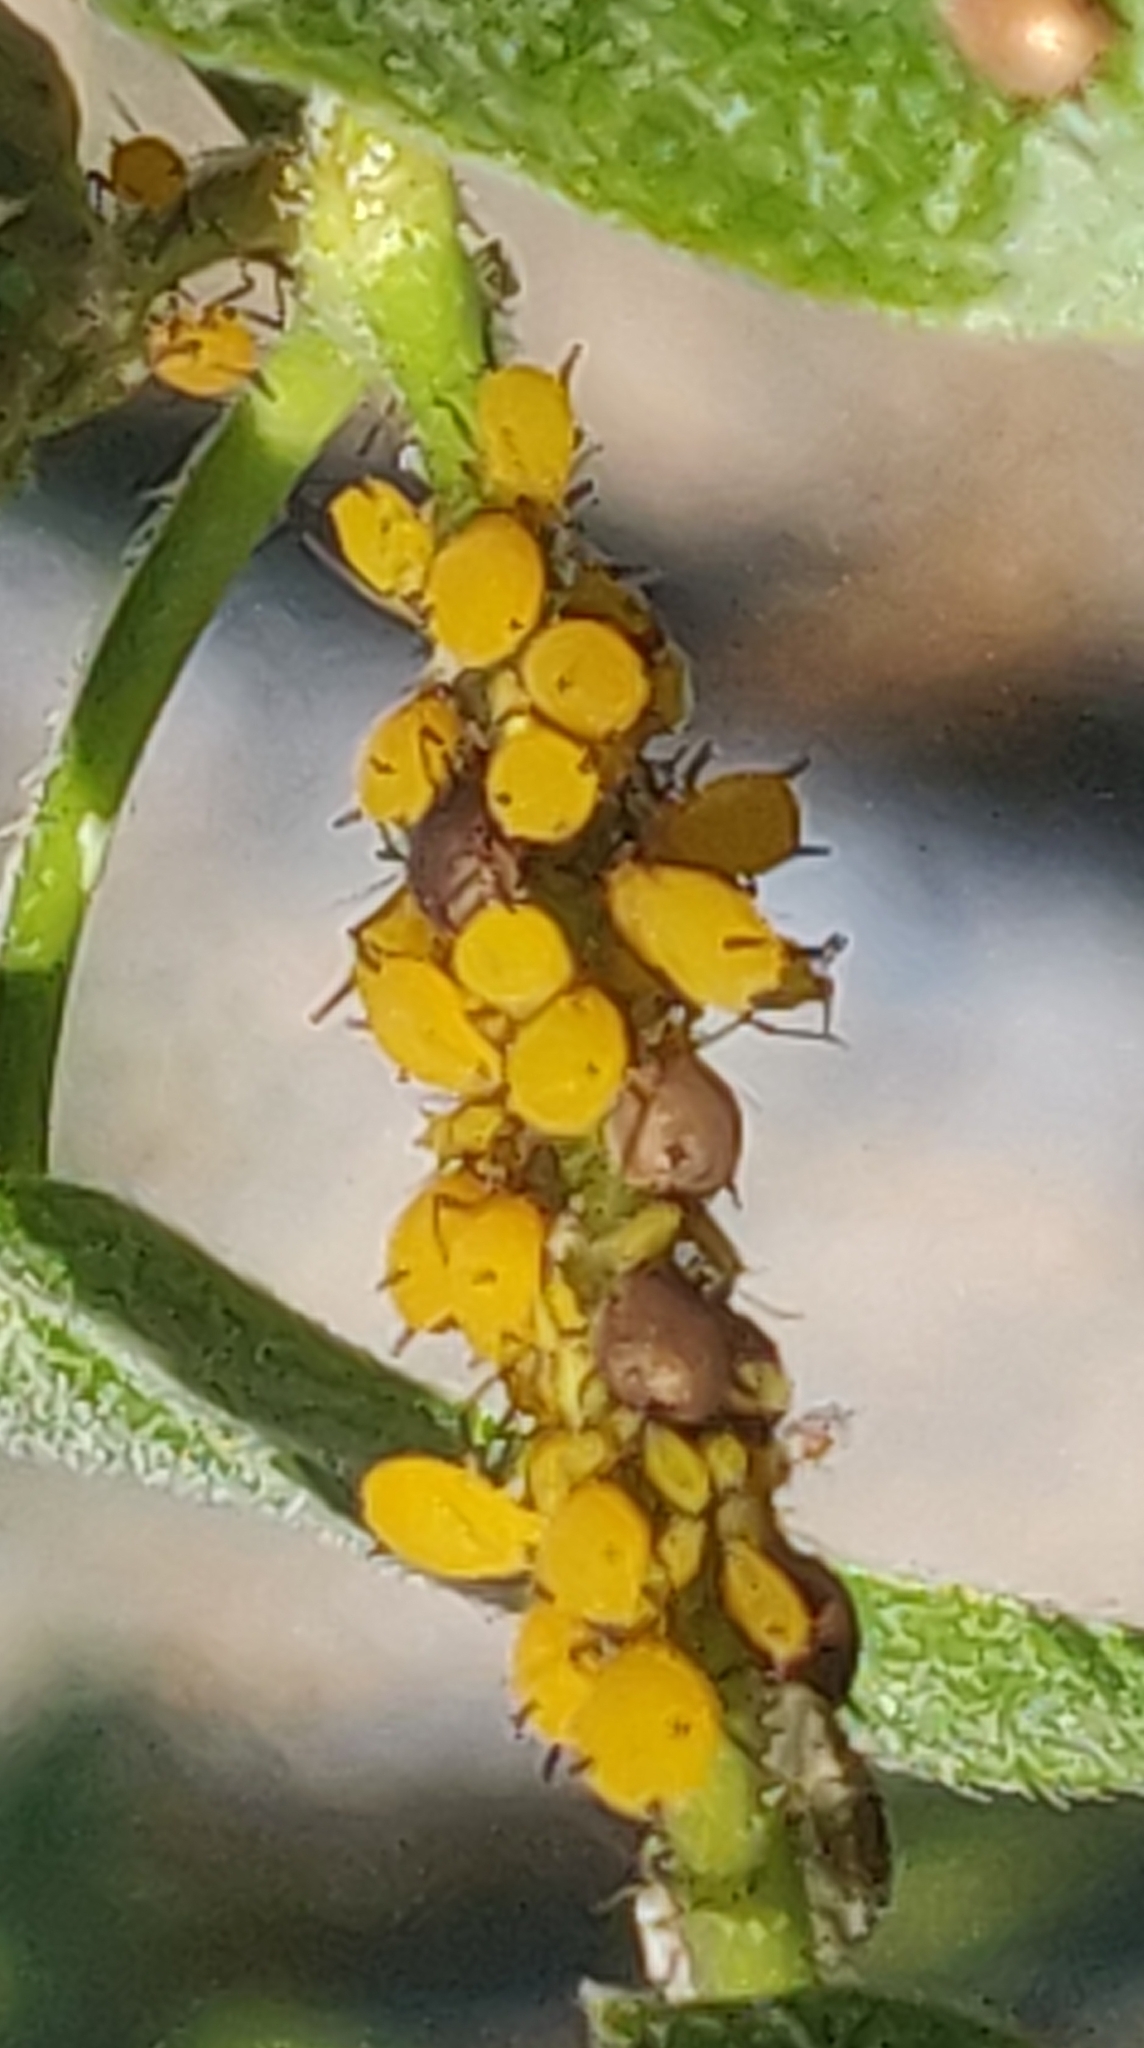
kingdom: Animalia
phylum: Arthropoda
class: Insecta
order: Hemiptera
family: Aphididae
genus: Aphis
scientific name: Aphis nerii
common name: Oleander aphid
